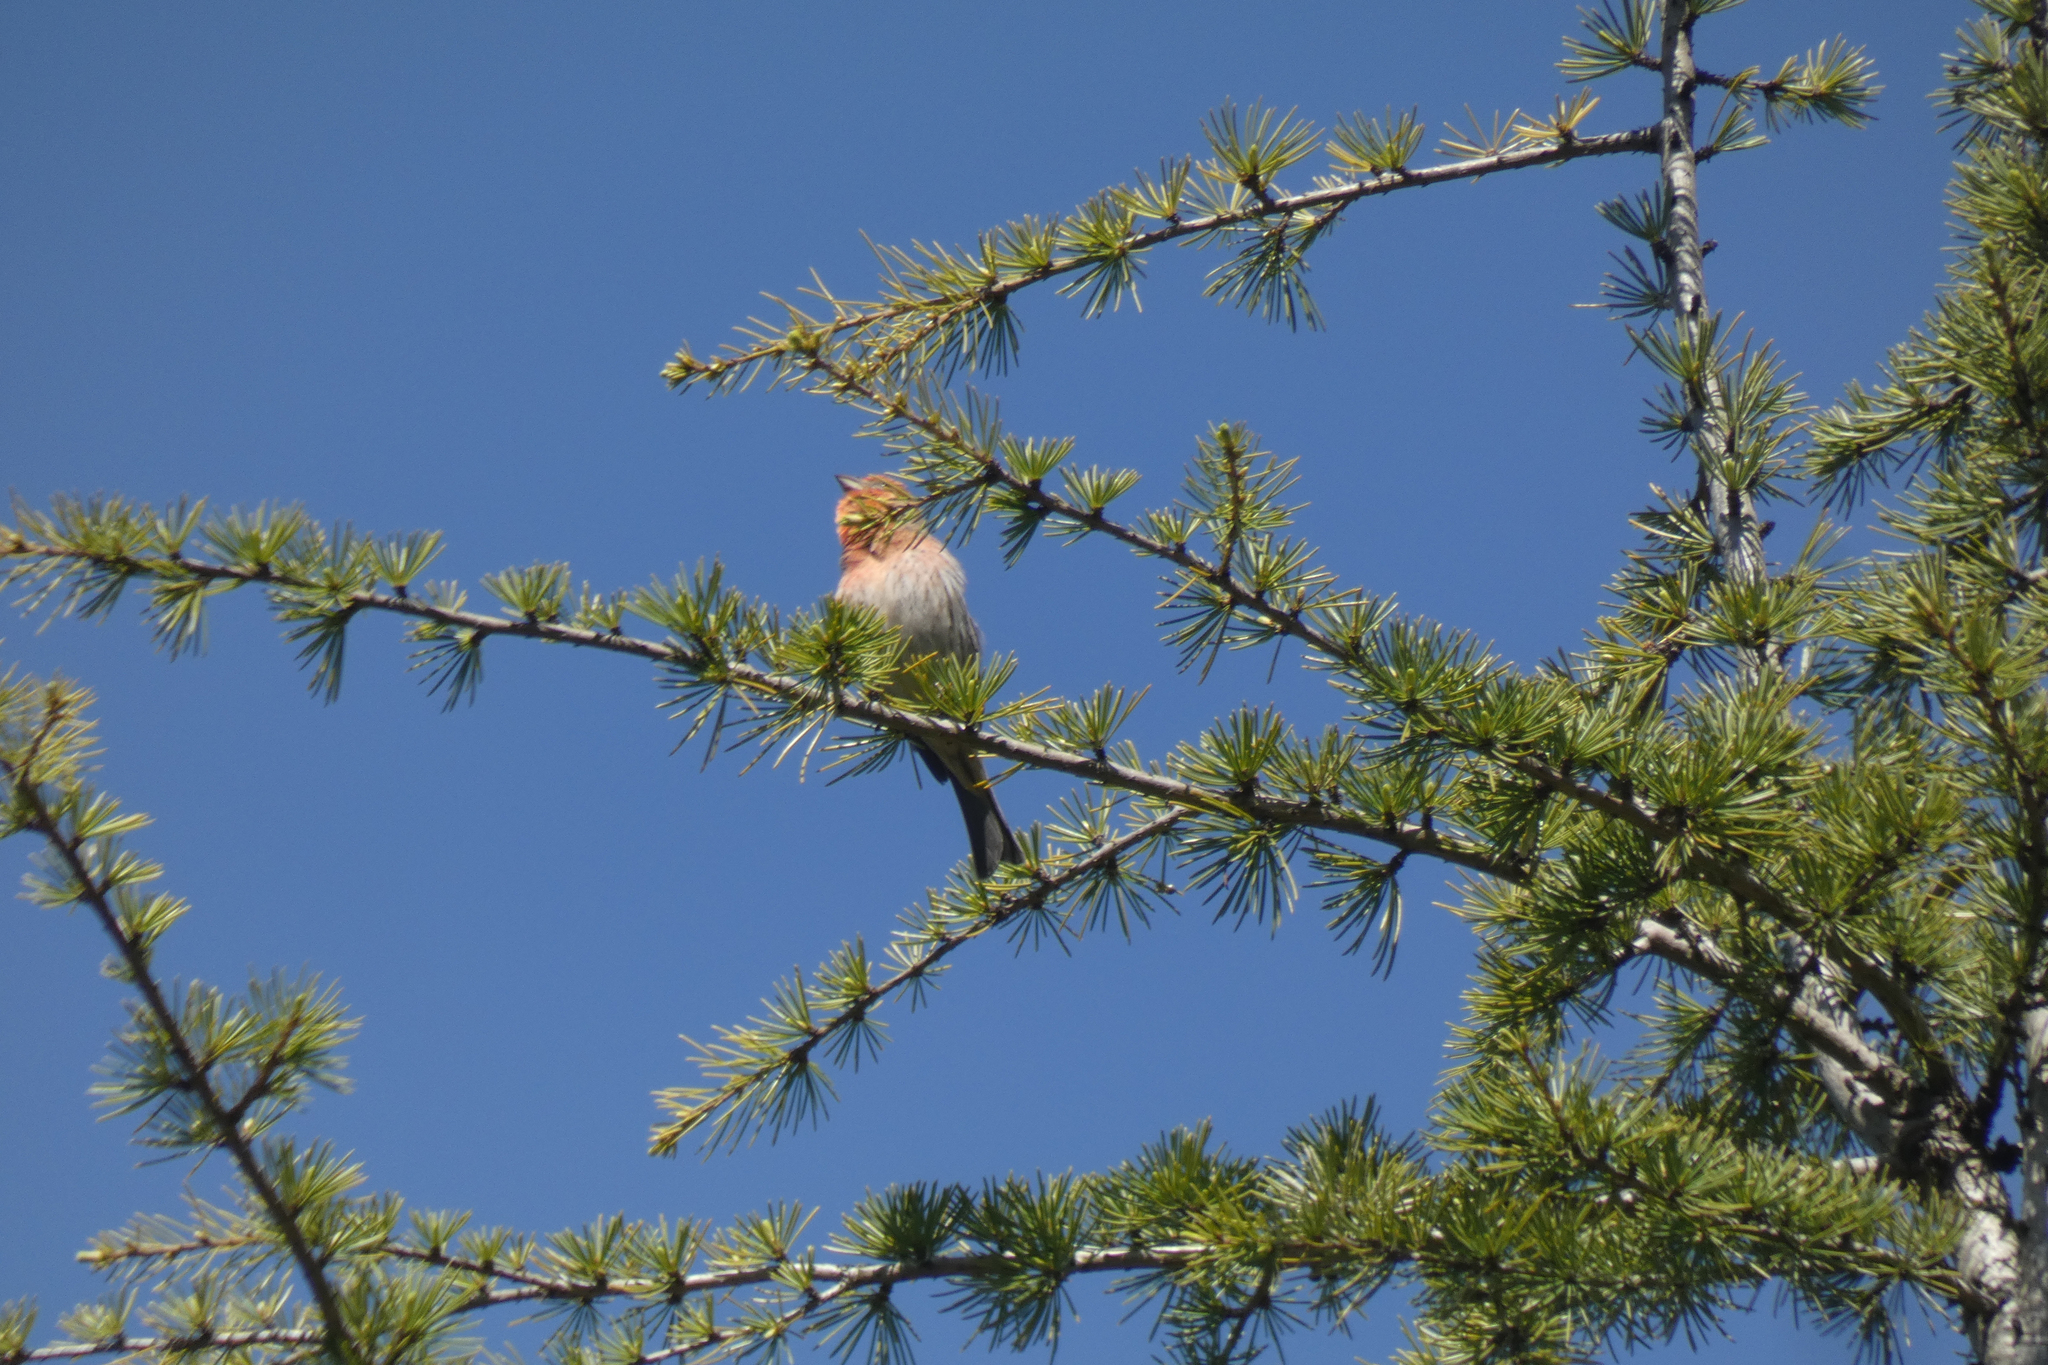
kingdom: Animalia
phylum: Chordata
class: Aves
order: Passeriformes
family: Fringillidae
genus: Haemorhous
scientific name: Haemorhous mexicanus
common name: House finch
